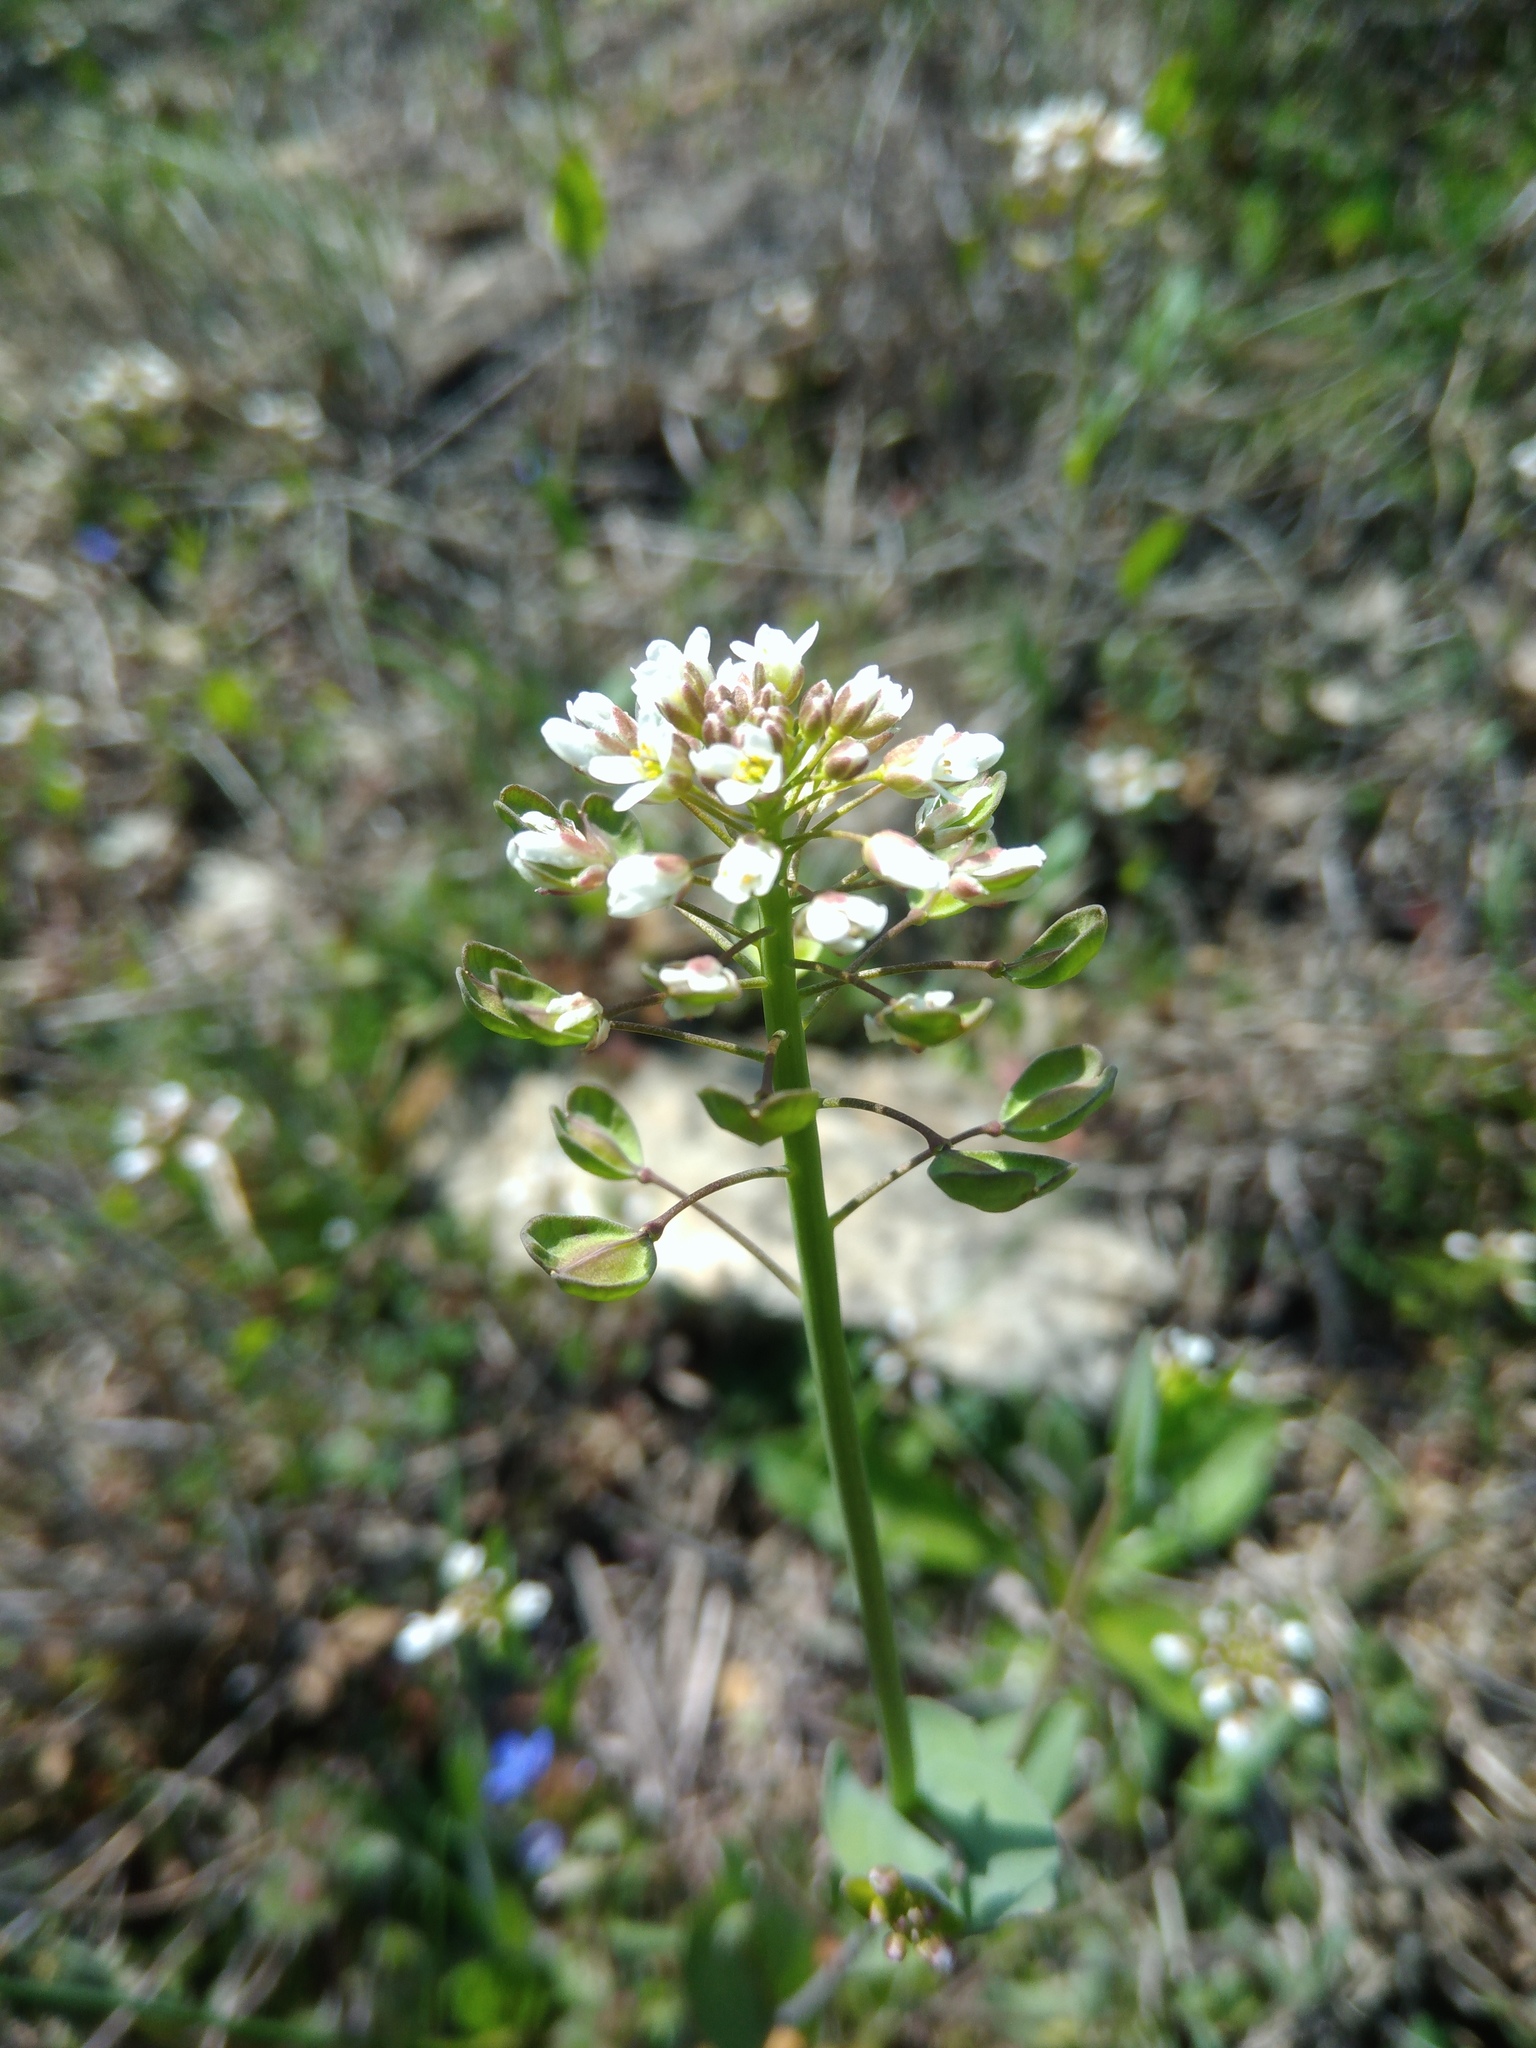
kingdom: Plantae
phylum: Tracheophyta
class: Magnoliopsida
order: Brassicales
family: Brassicaceae
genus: Noccaea
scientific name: Noccaea perfoliata
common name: Perfoliate pennycress
